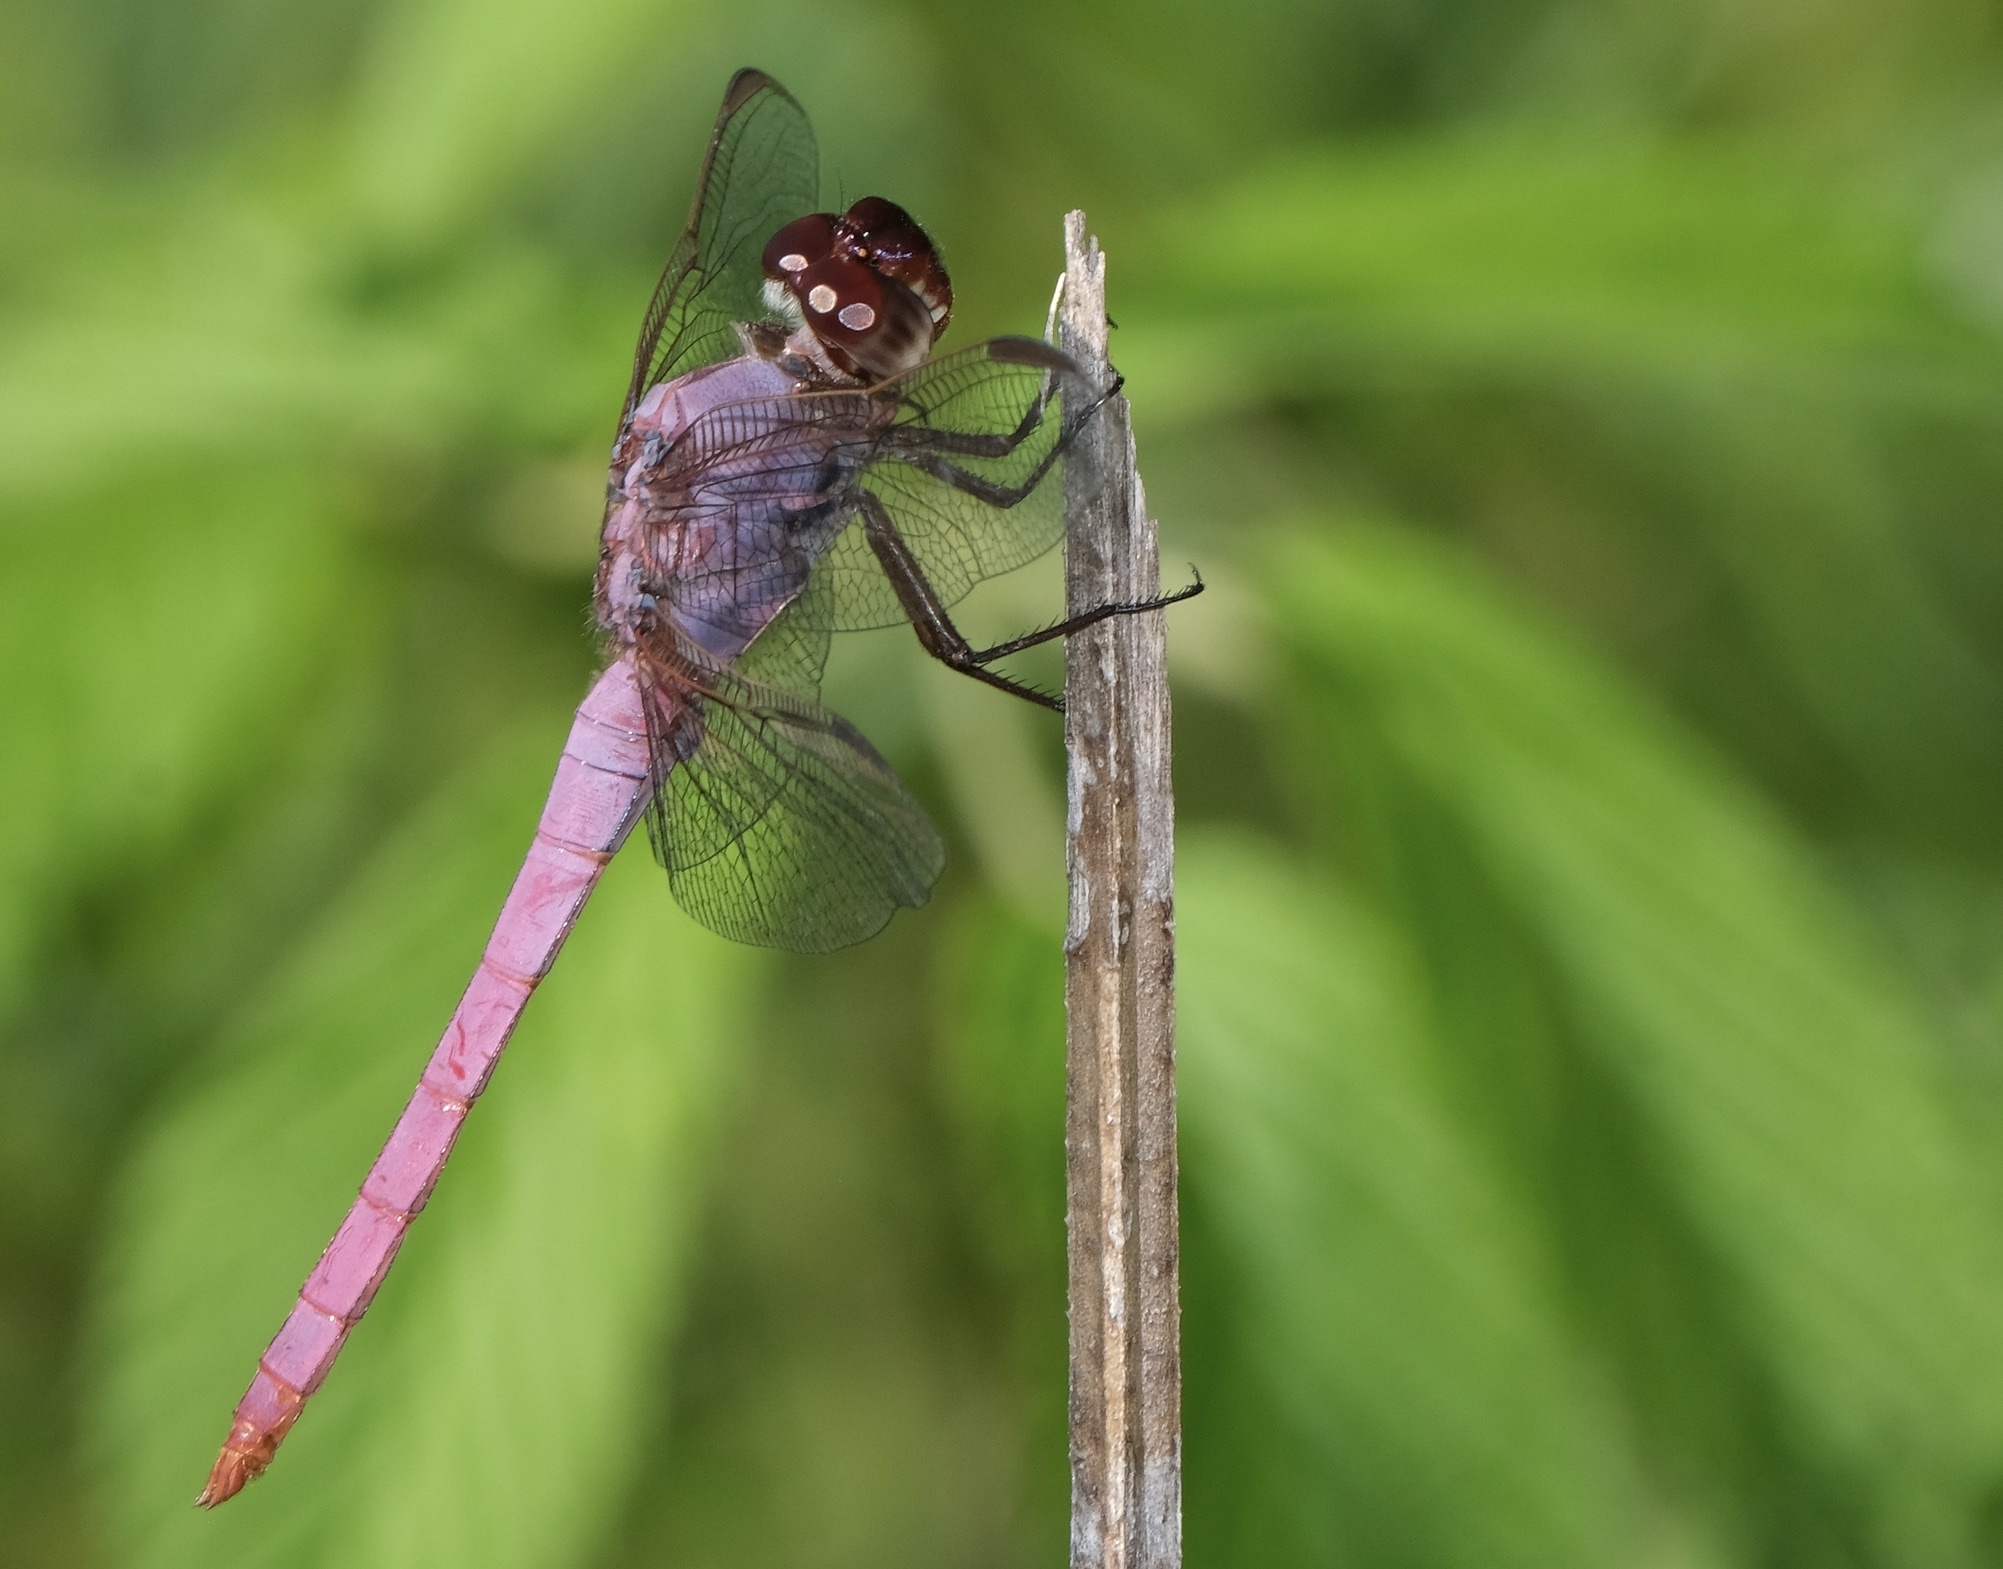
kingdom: Animalia
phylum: Arthropoda
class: Insecta
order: Odonata
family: Libellulidae
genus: Orthemis
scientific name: Orthemis ferruginea
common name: Roseate skimmer
